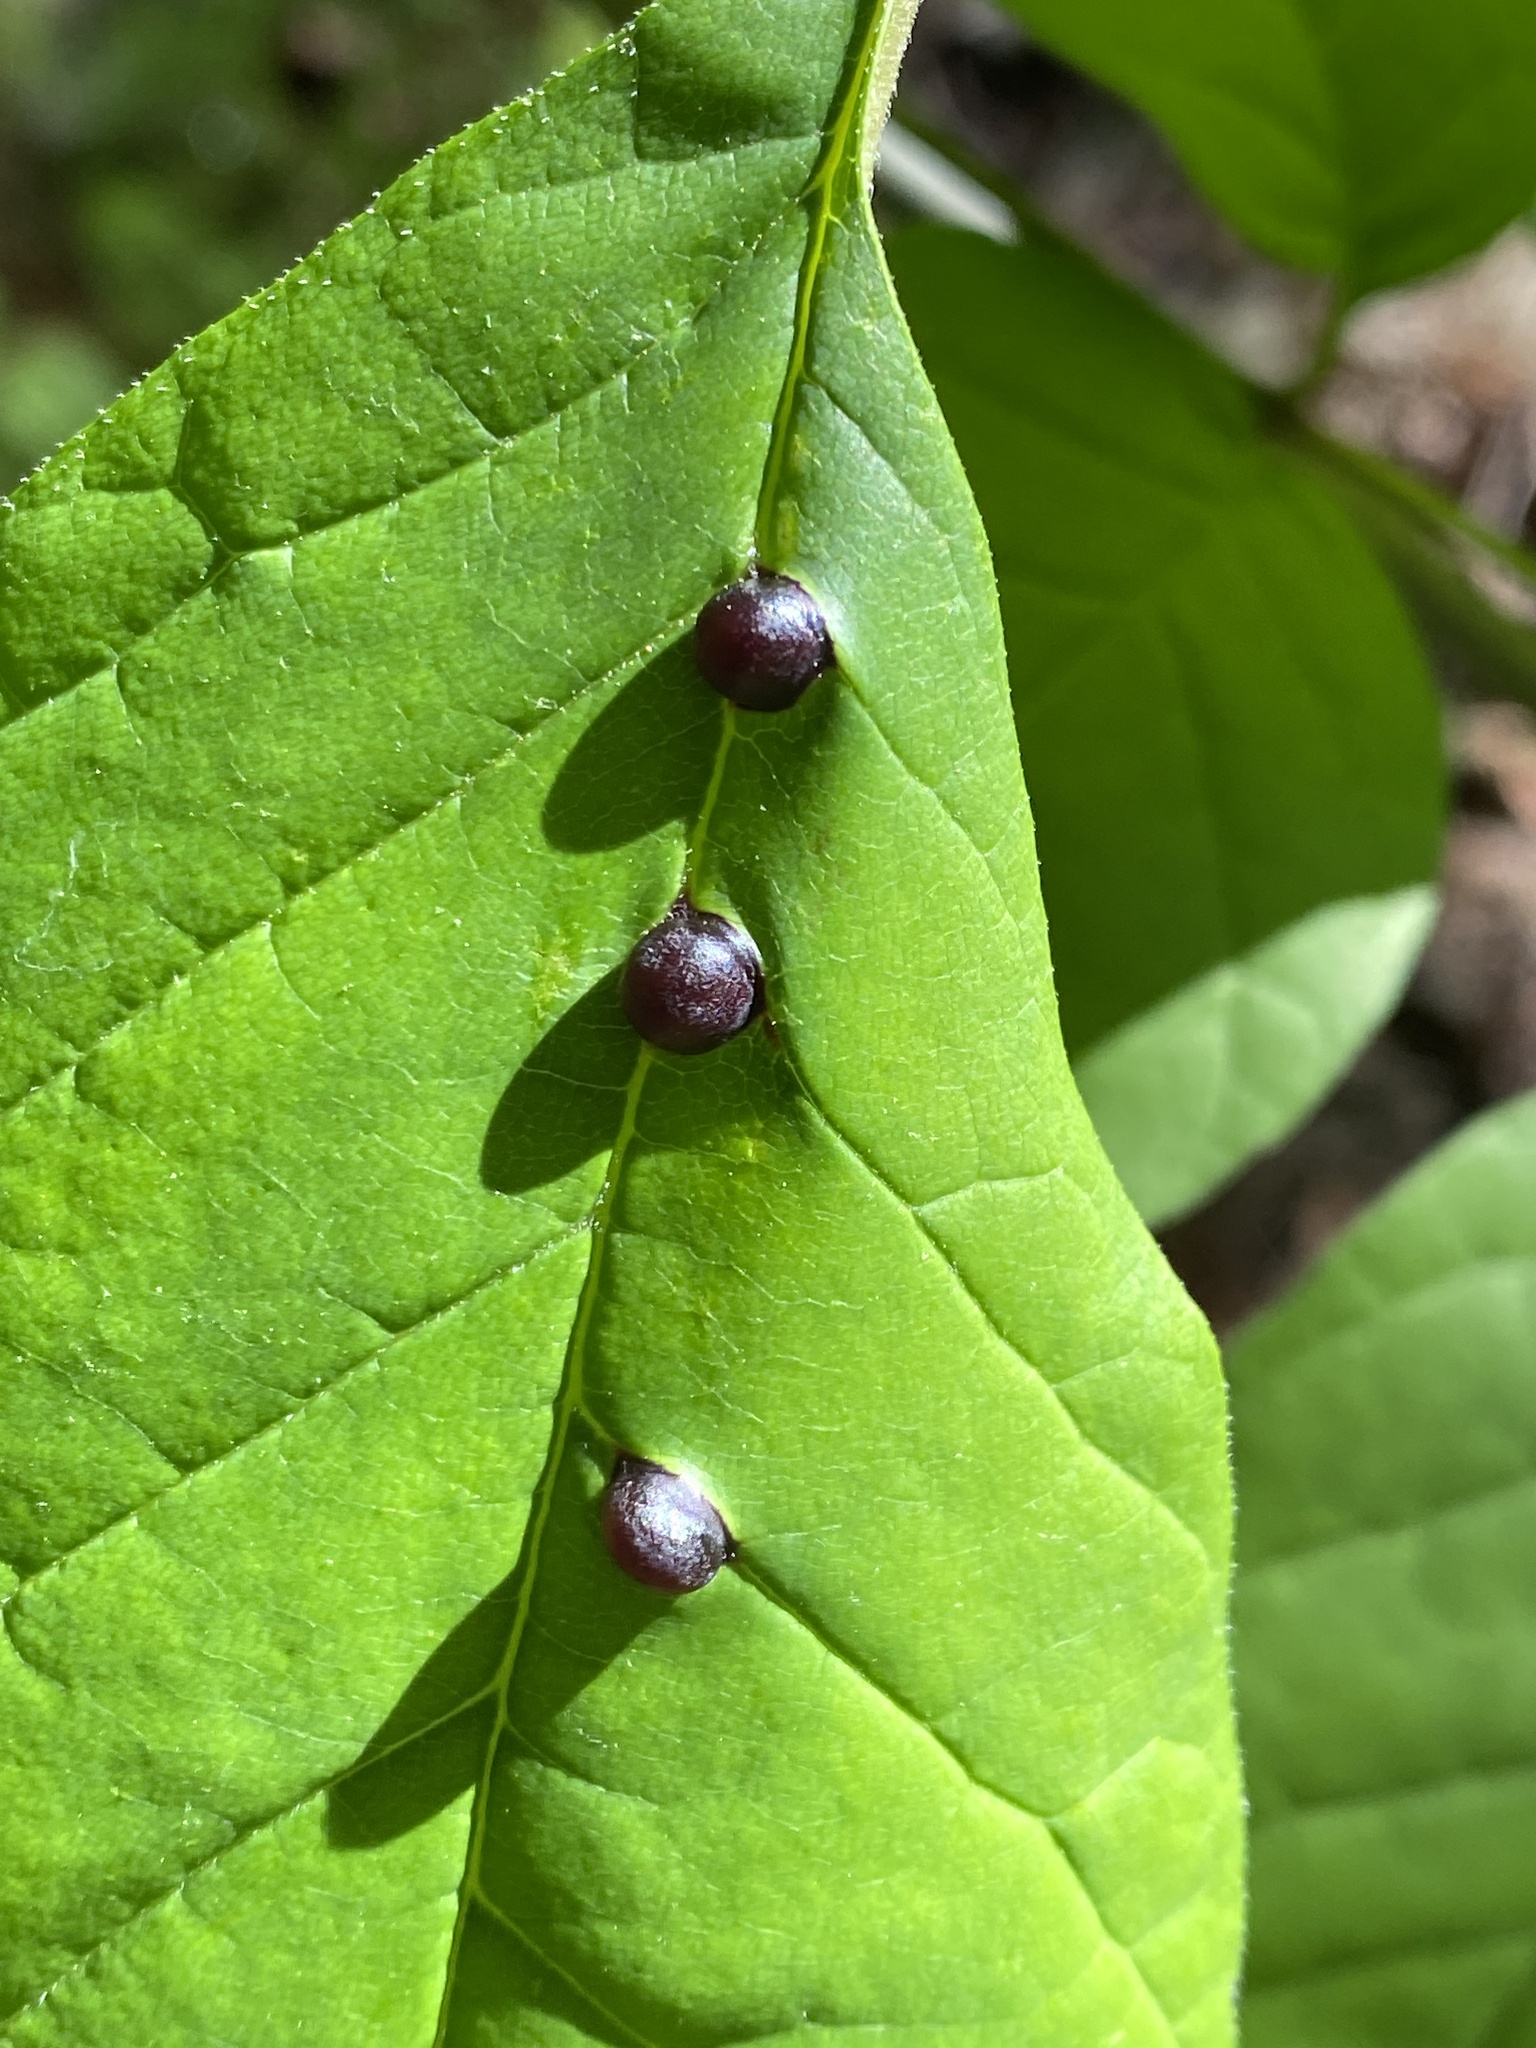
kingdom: Animalia
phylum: Arthropoda
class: Insecta
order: Diptera
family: Cecidomyiidae
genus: Dasineura
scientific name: Dasineura pellex
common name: Ash bullet gall midge
